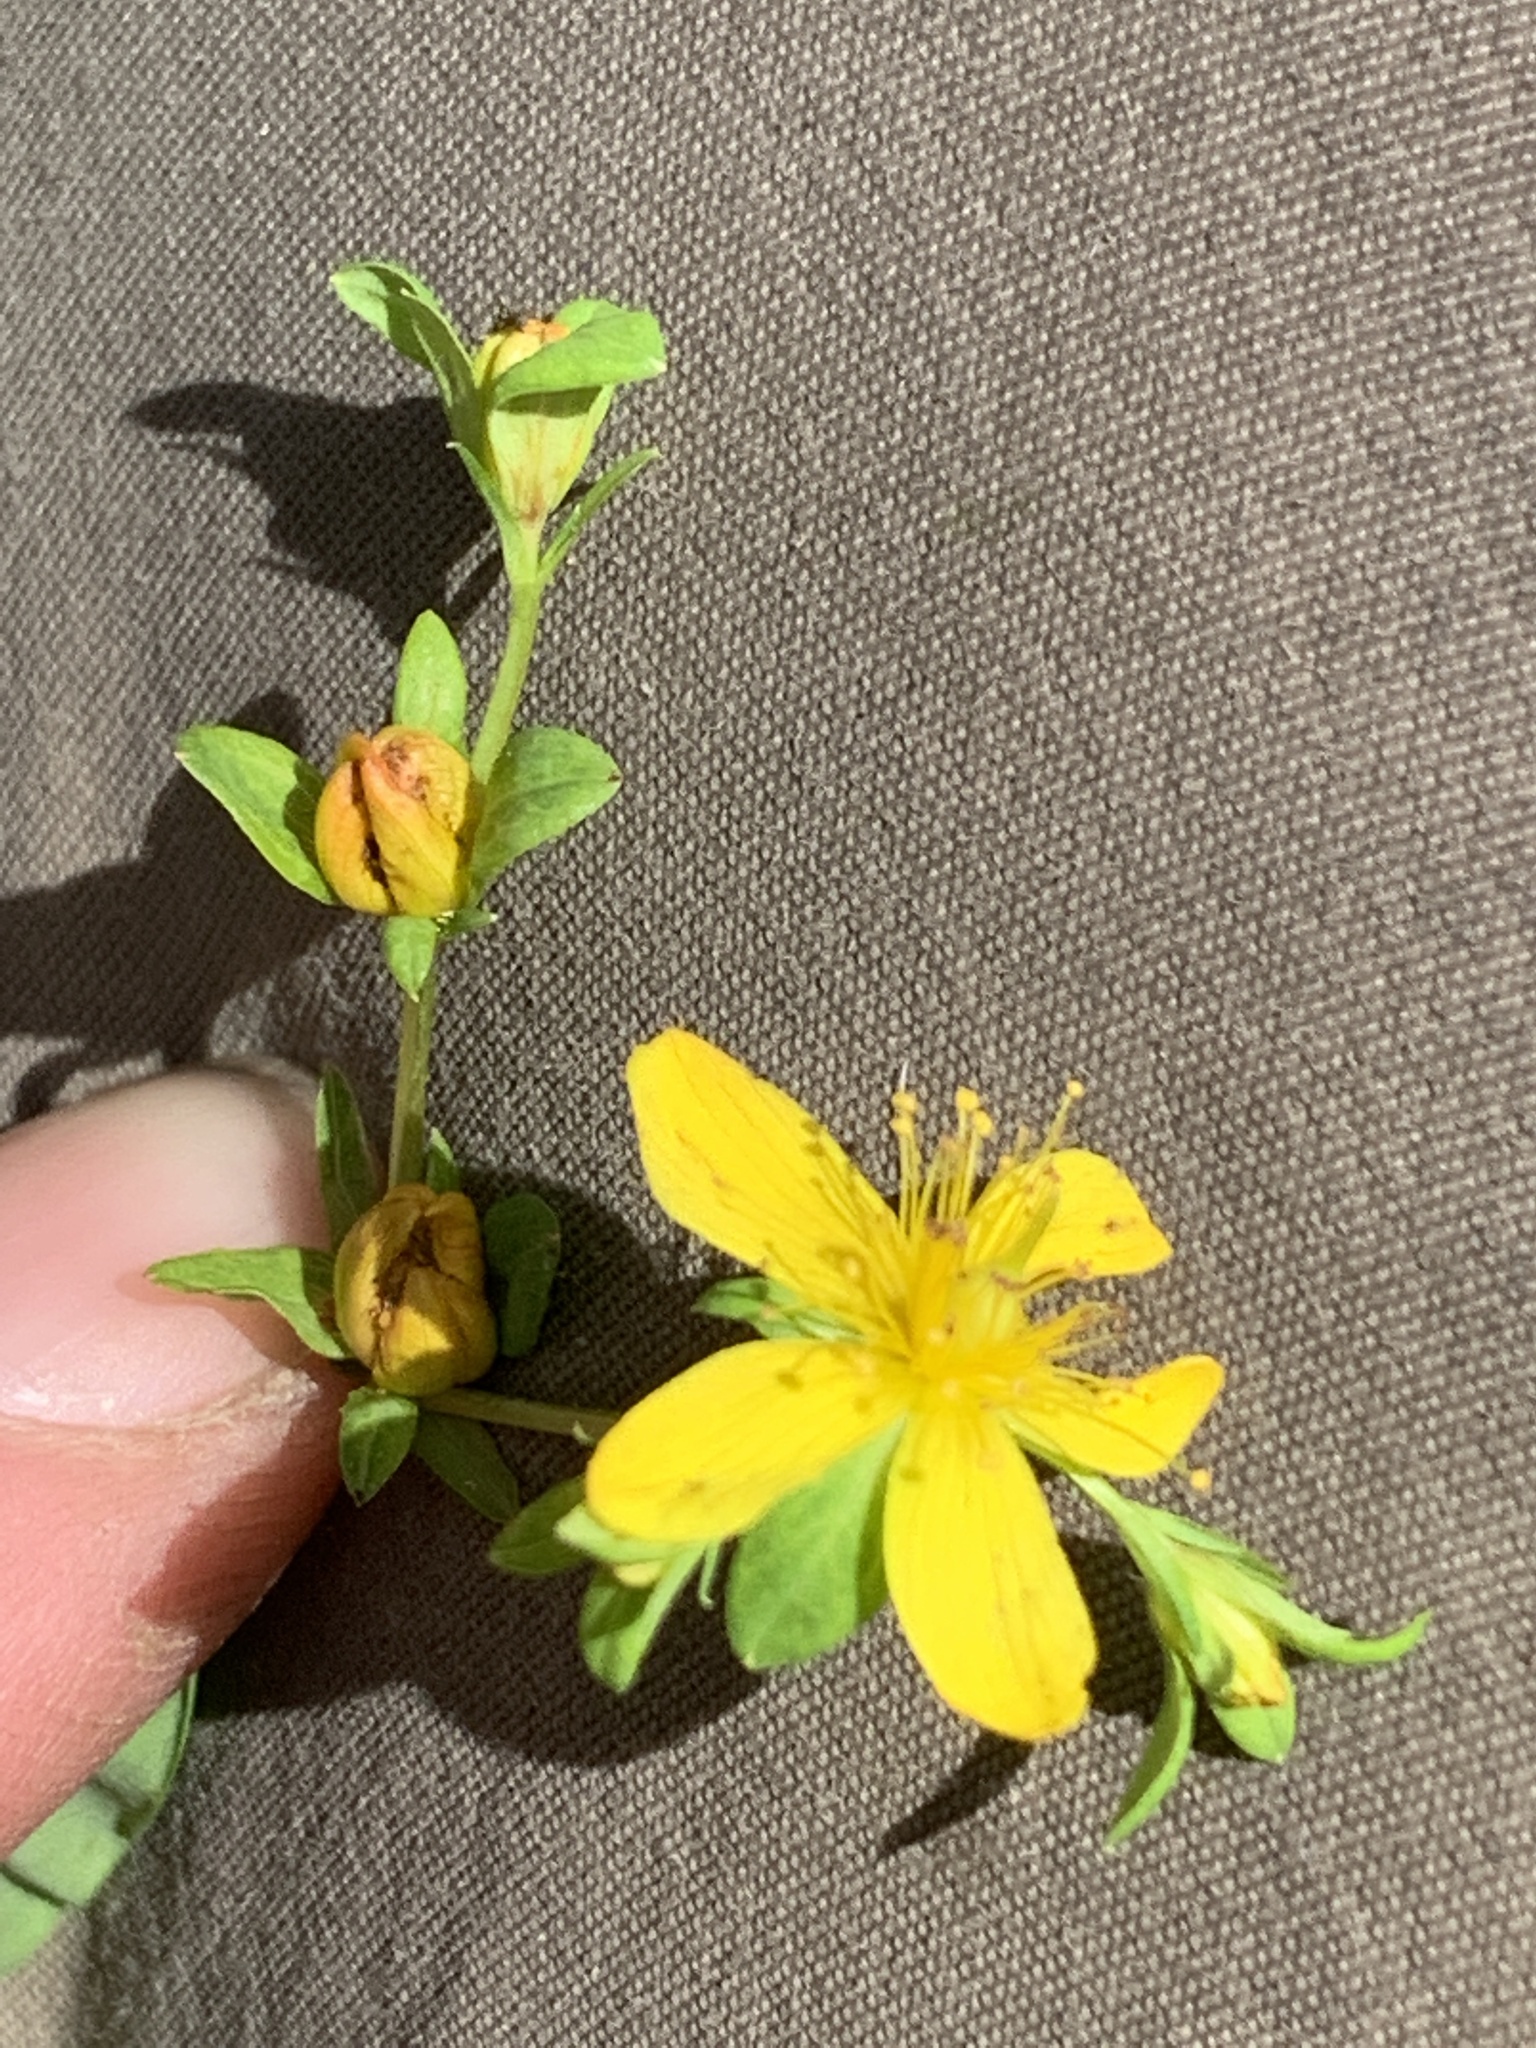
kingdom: Plantae
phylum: Tracheophyta
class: Magnoliopsida
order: Malpighiales
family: Hypericaceae
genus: Hypericum
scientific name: Hypericum ellipticum
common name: Elliptic st. john's-wort
